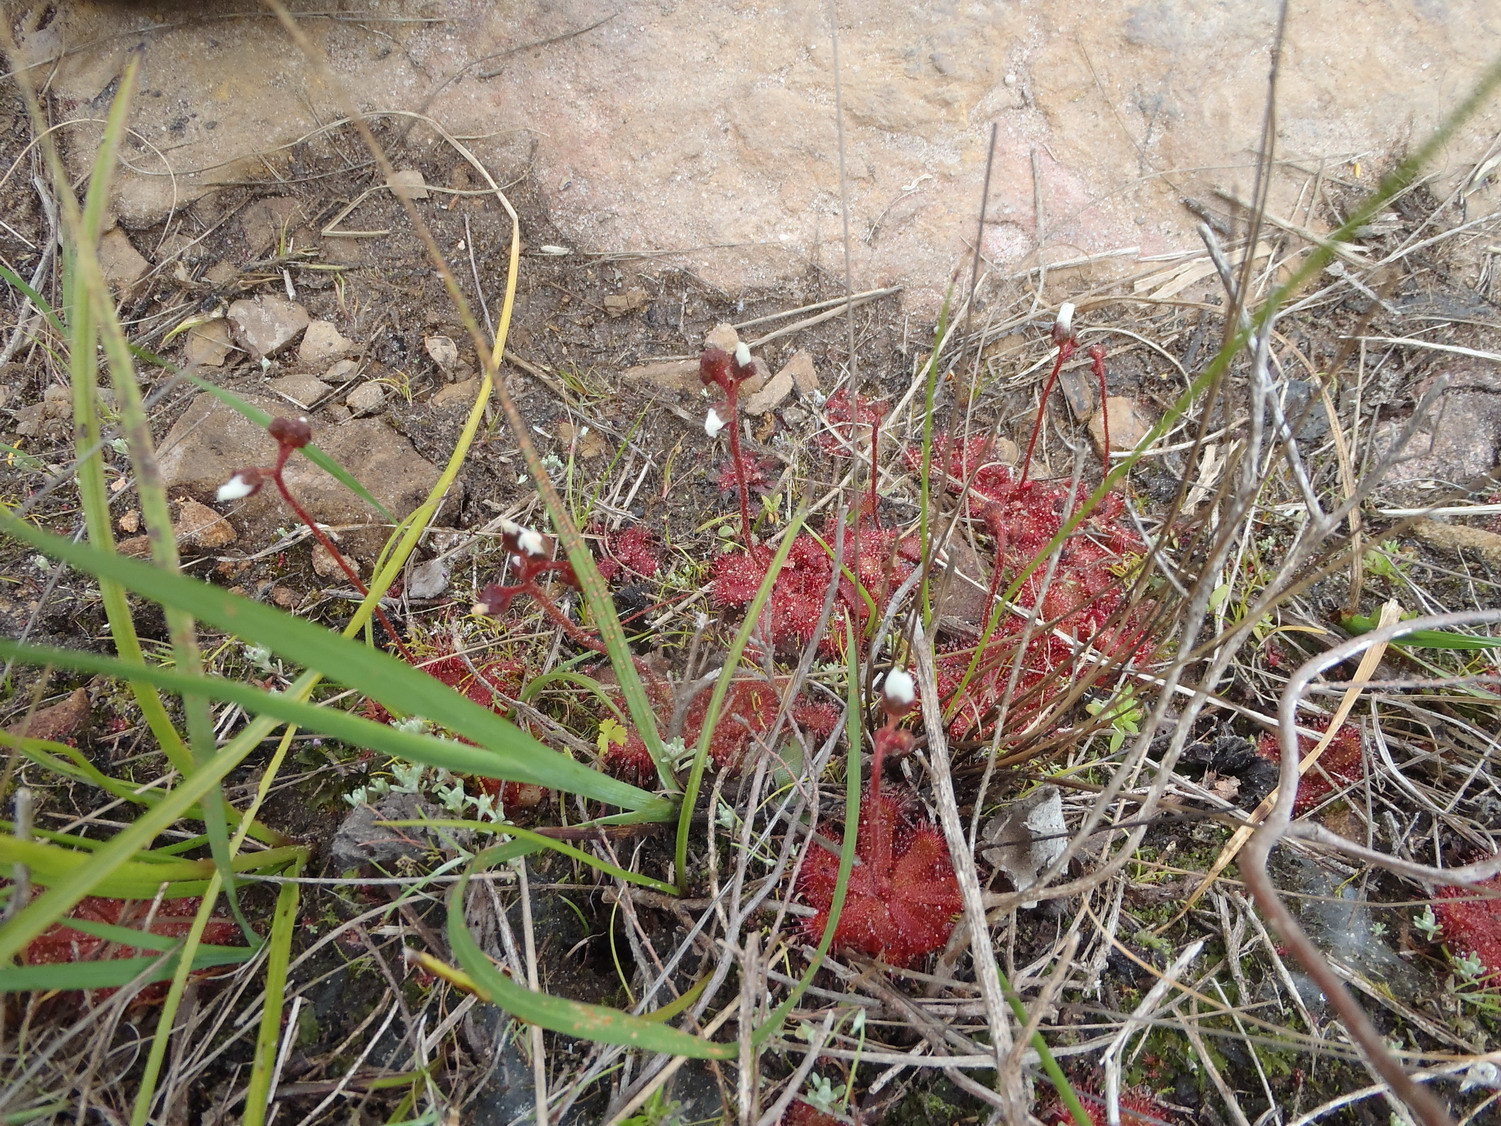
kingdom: Plantae
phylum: Tracheophyta
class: Magnoliopsida
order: Caryophyllales
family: Droseraceae
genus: Drosera
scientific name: Drosera trinervia
